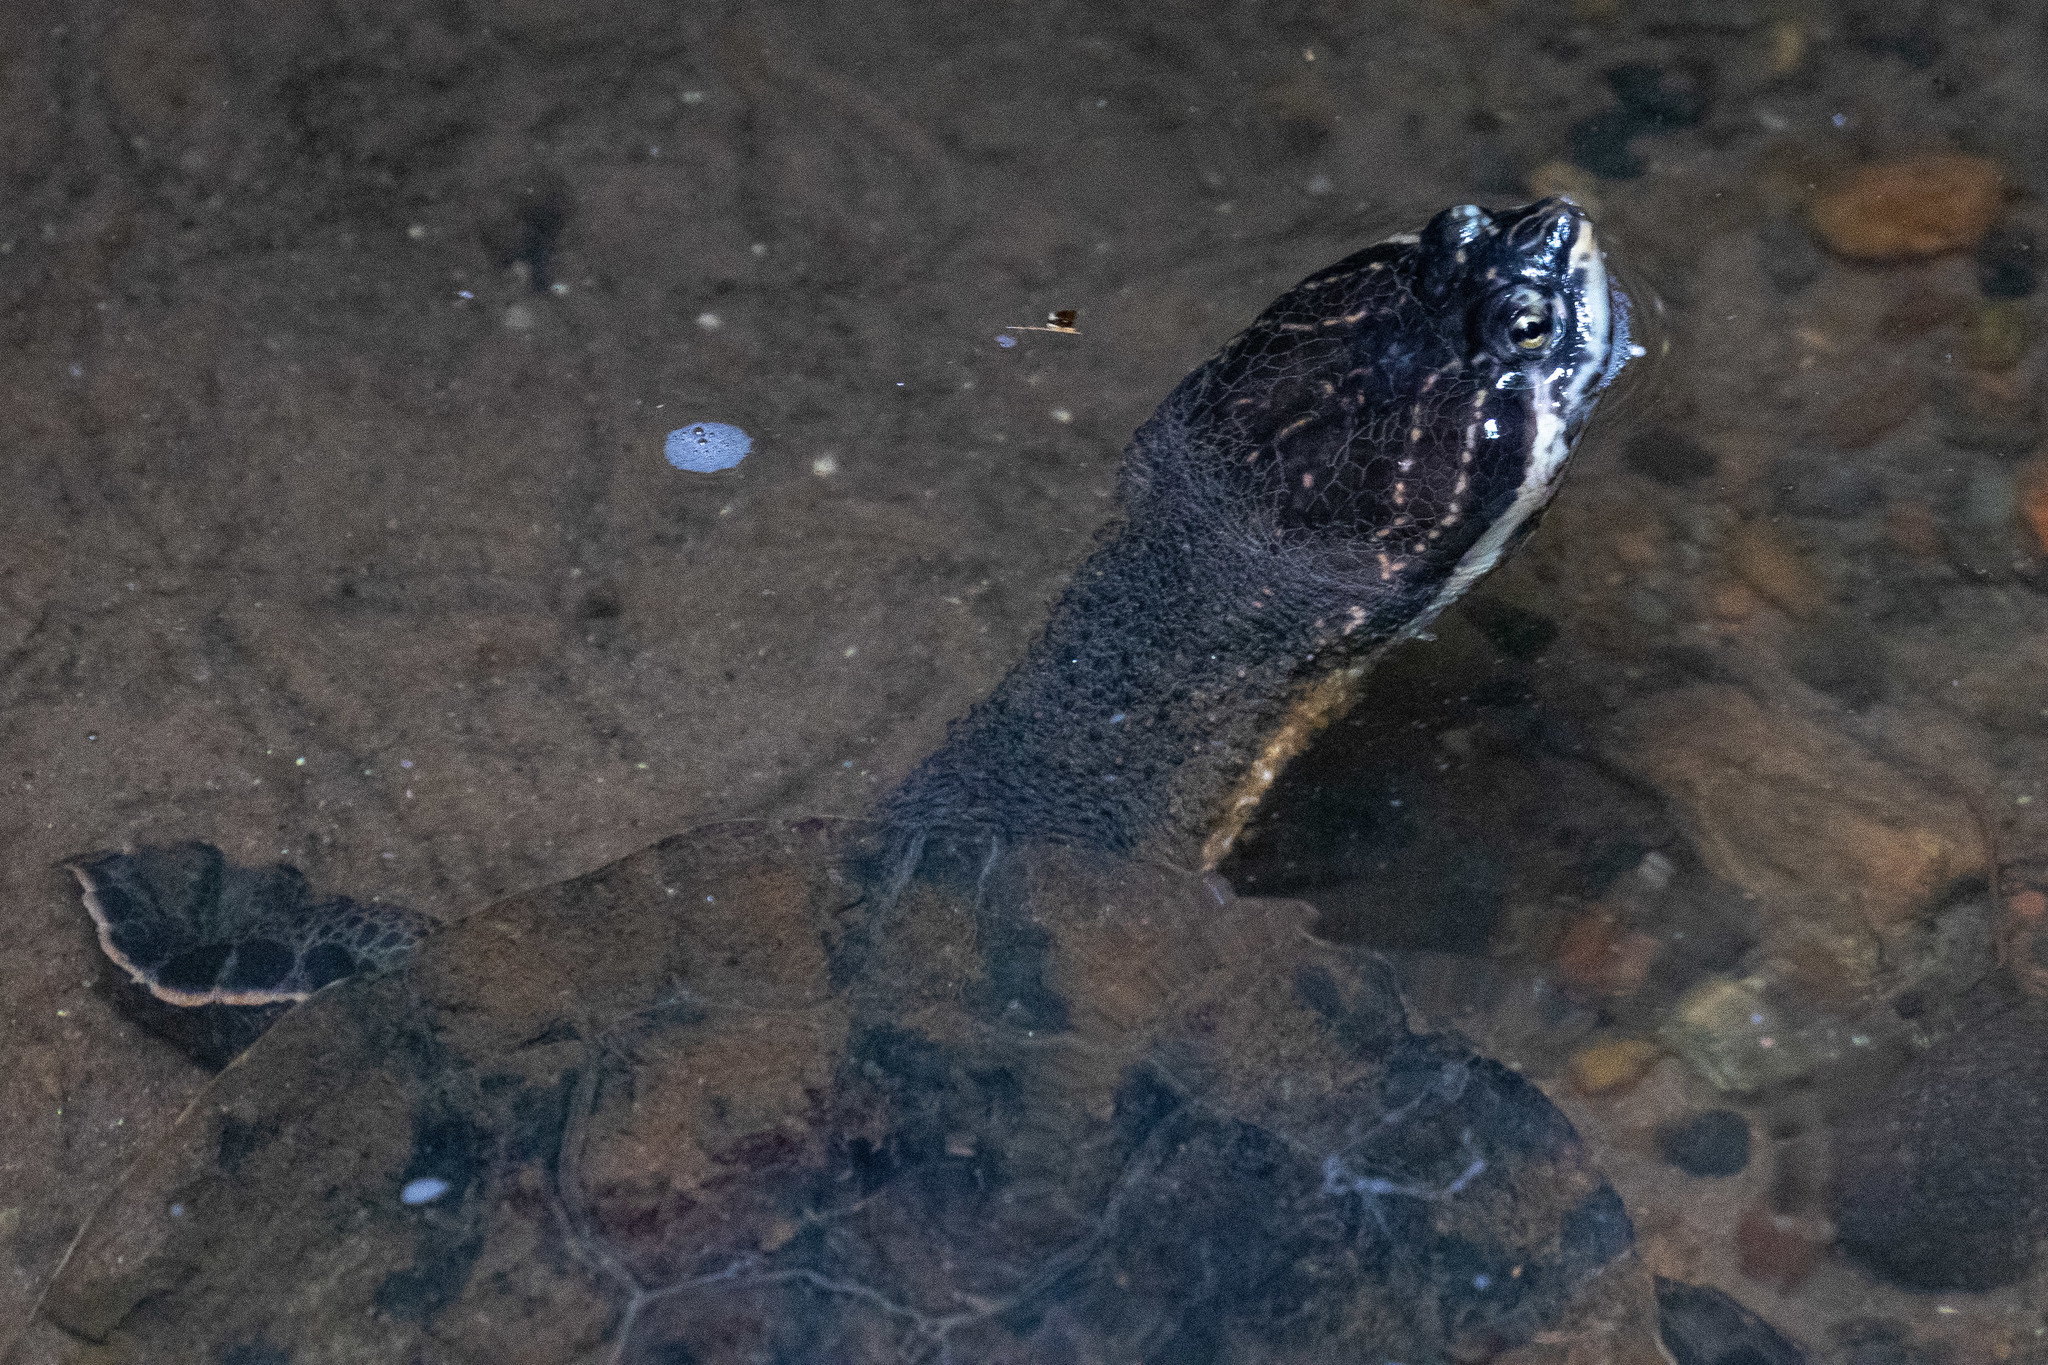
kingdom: Animalia
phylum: Chordata
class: Testudines
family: Chelidae
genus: Phrynops
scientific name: Phrynops geoffroanus
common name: Side-necked turtle of geoffroy
